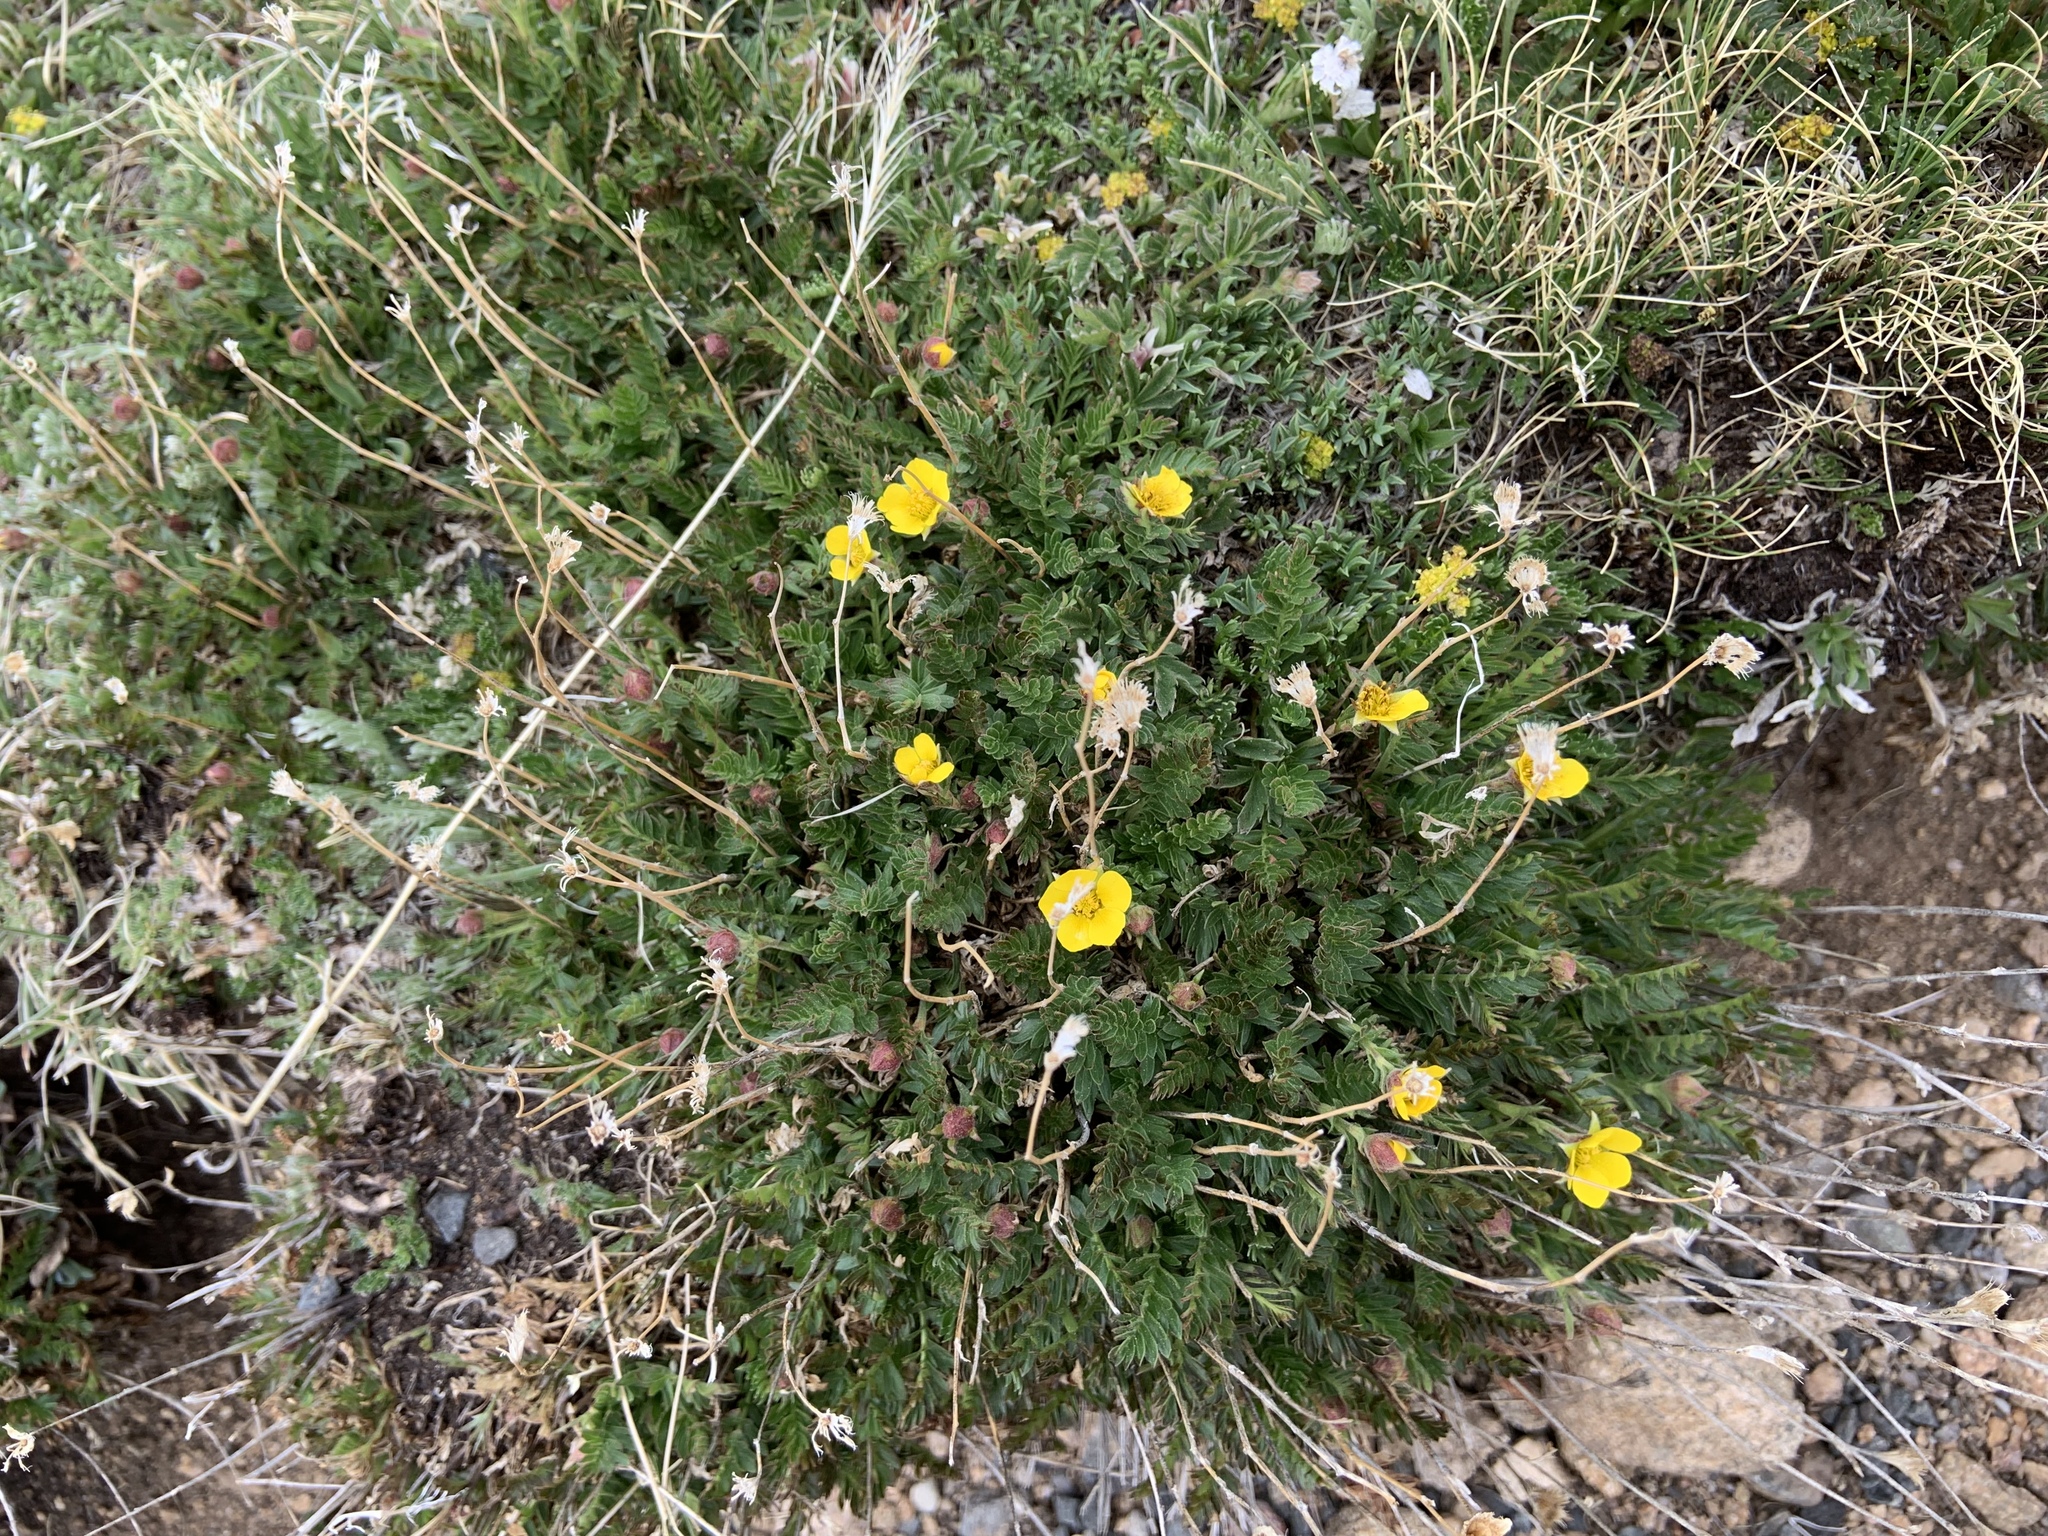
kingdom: Plantae
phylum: Tracheophyta
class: Magnoliopsida
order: Rosales
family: Rosaceae
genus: Geum
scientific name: Geum rossii
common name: Alpine avens
